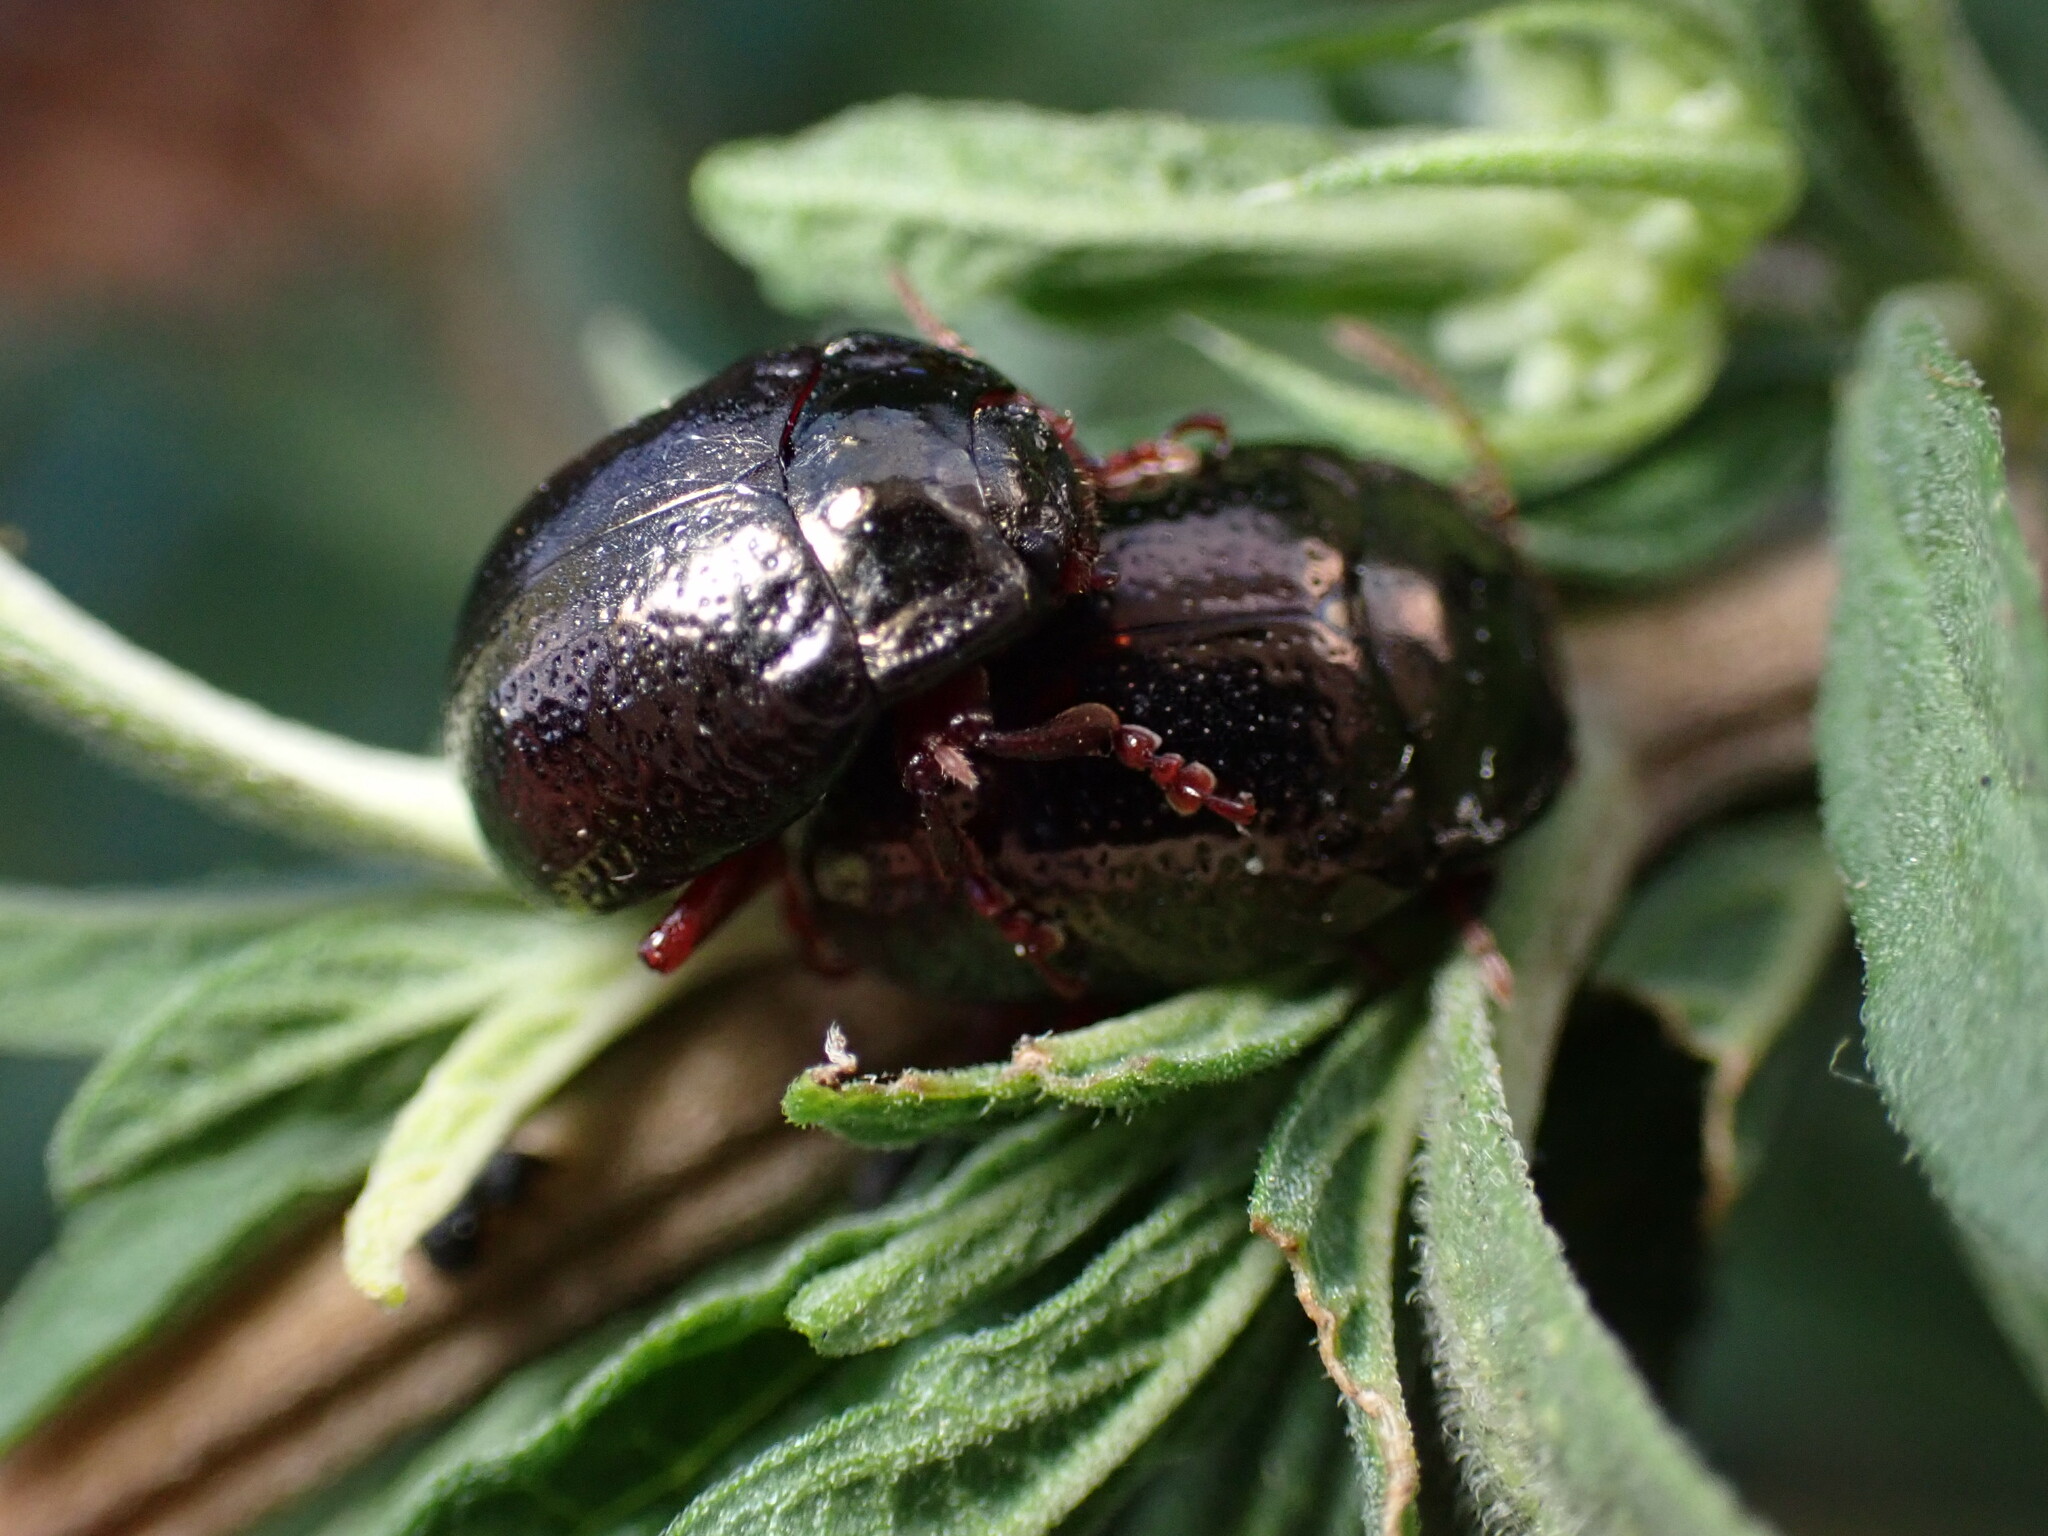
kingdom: Animalia
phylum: Arthropoda
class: Insecta
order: Coleoptera
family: Chrysomelidae
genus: Chrysolina
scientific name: Chrysolina bankii
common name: Leaf beetle
